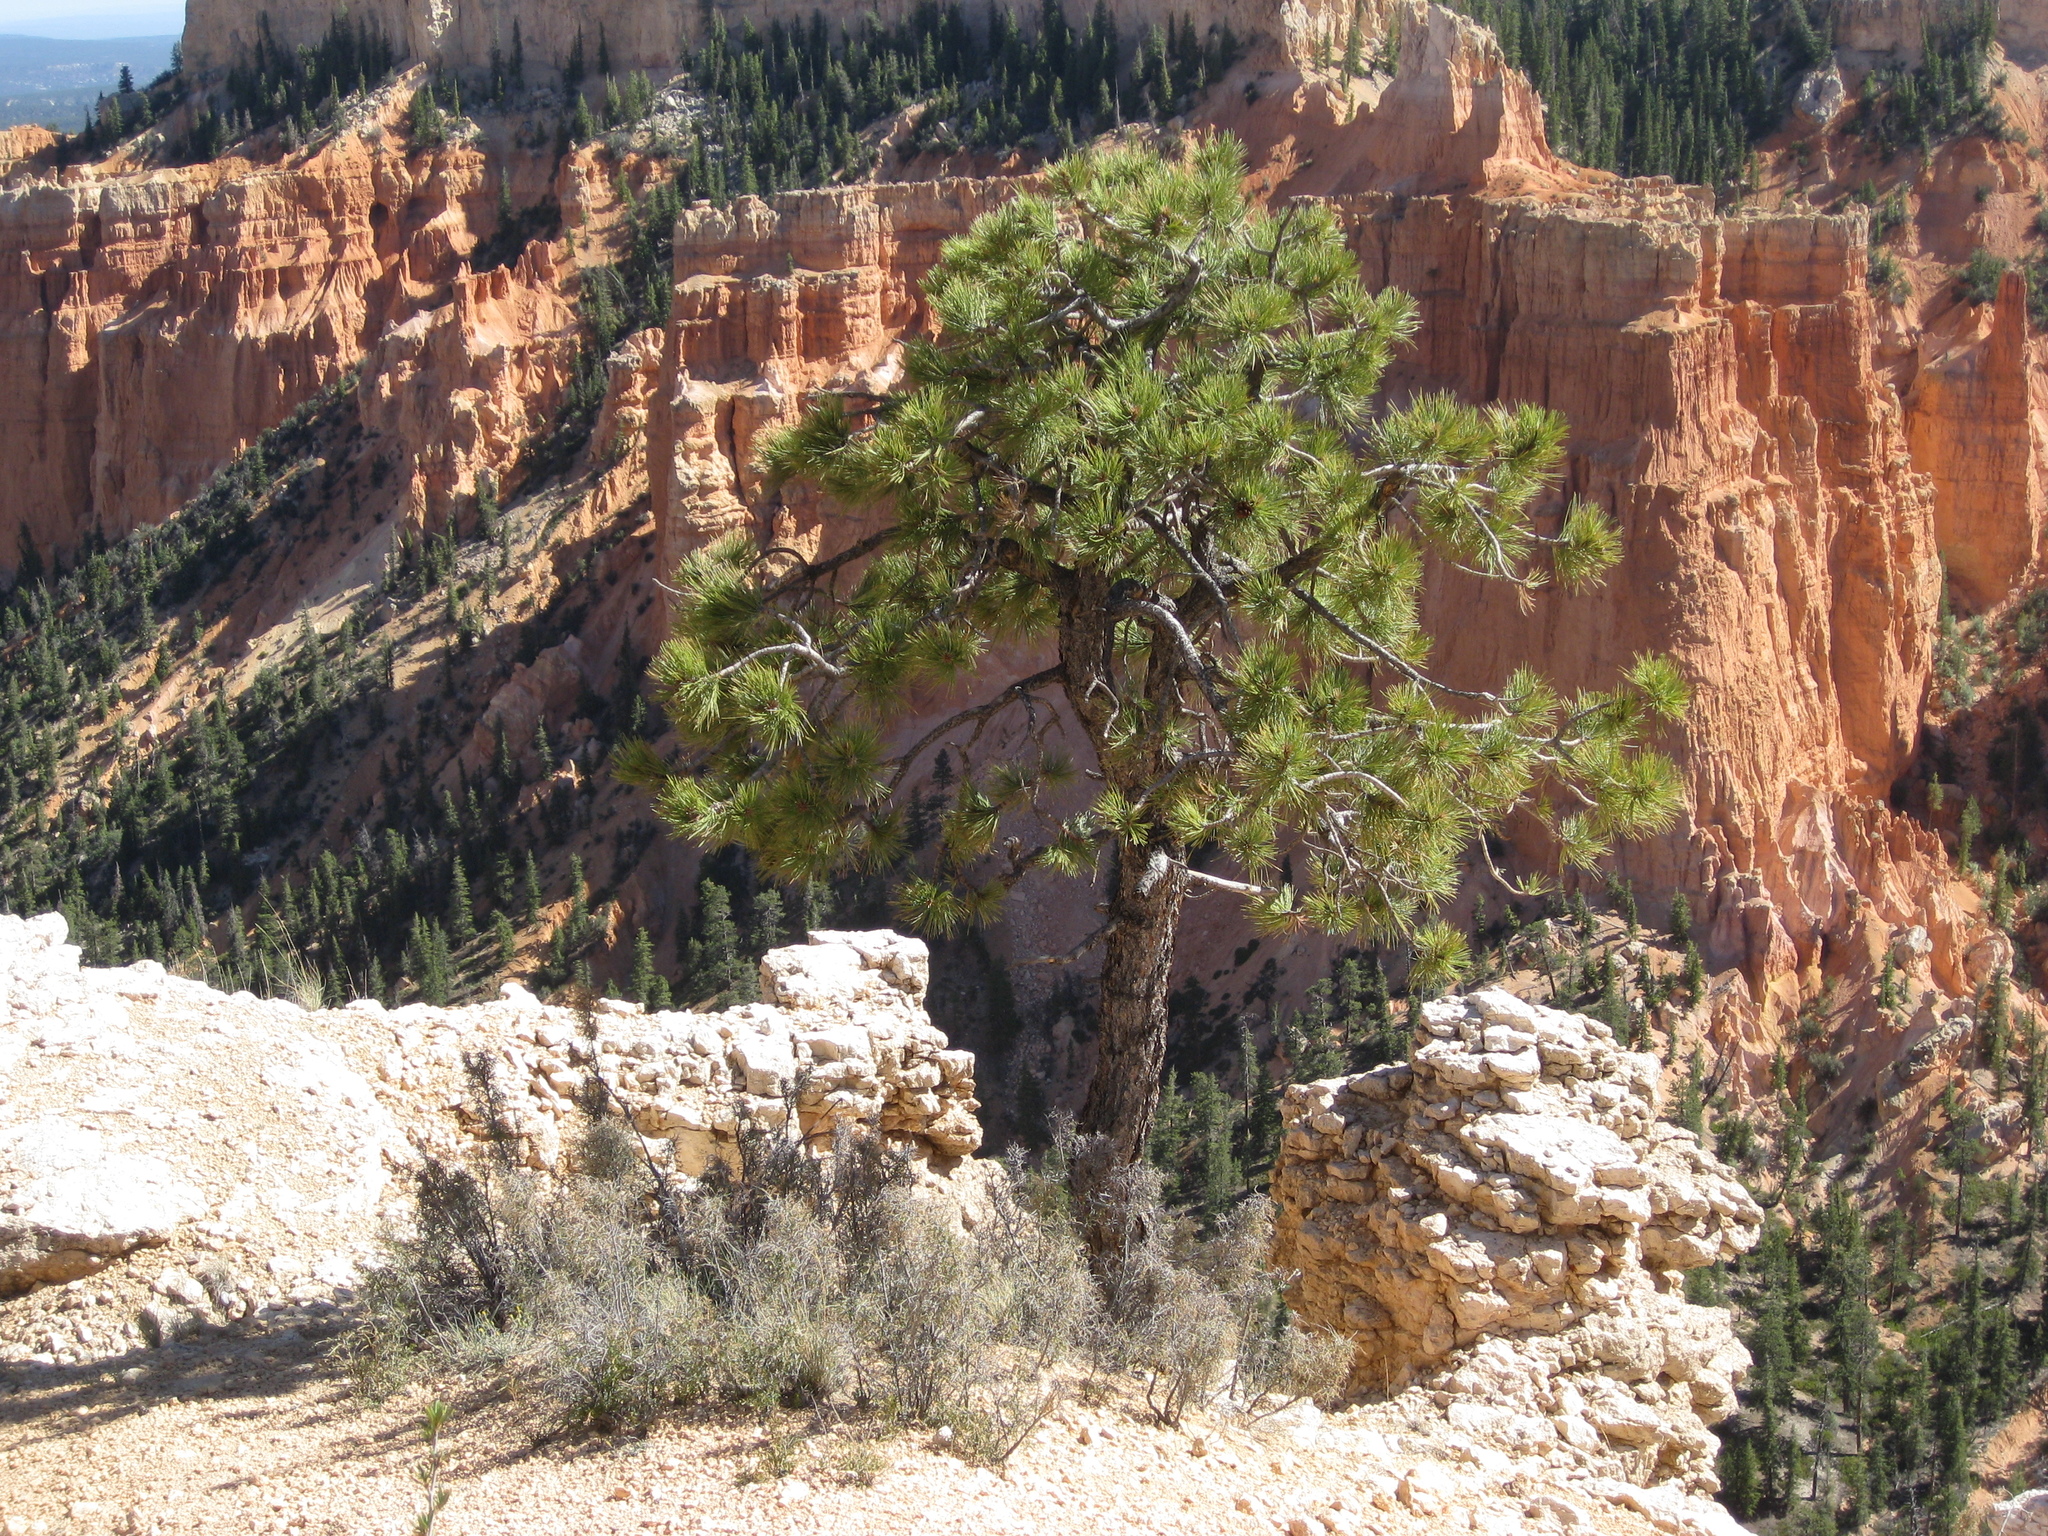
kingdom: Plantae
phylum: Tracheophyta
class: Pinopsida
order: Pinales
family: Pinaceae
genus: Pinus
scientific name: Pinus ponderosa
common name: Western yellow-pine
